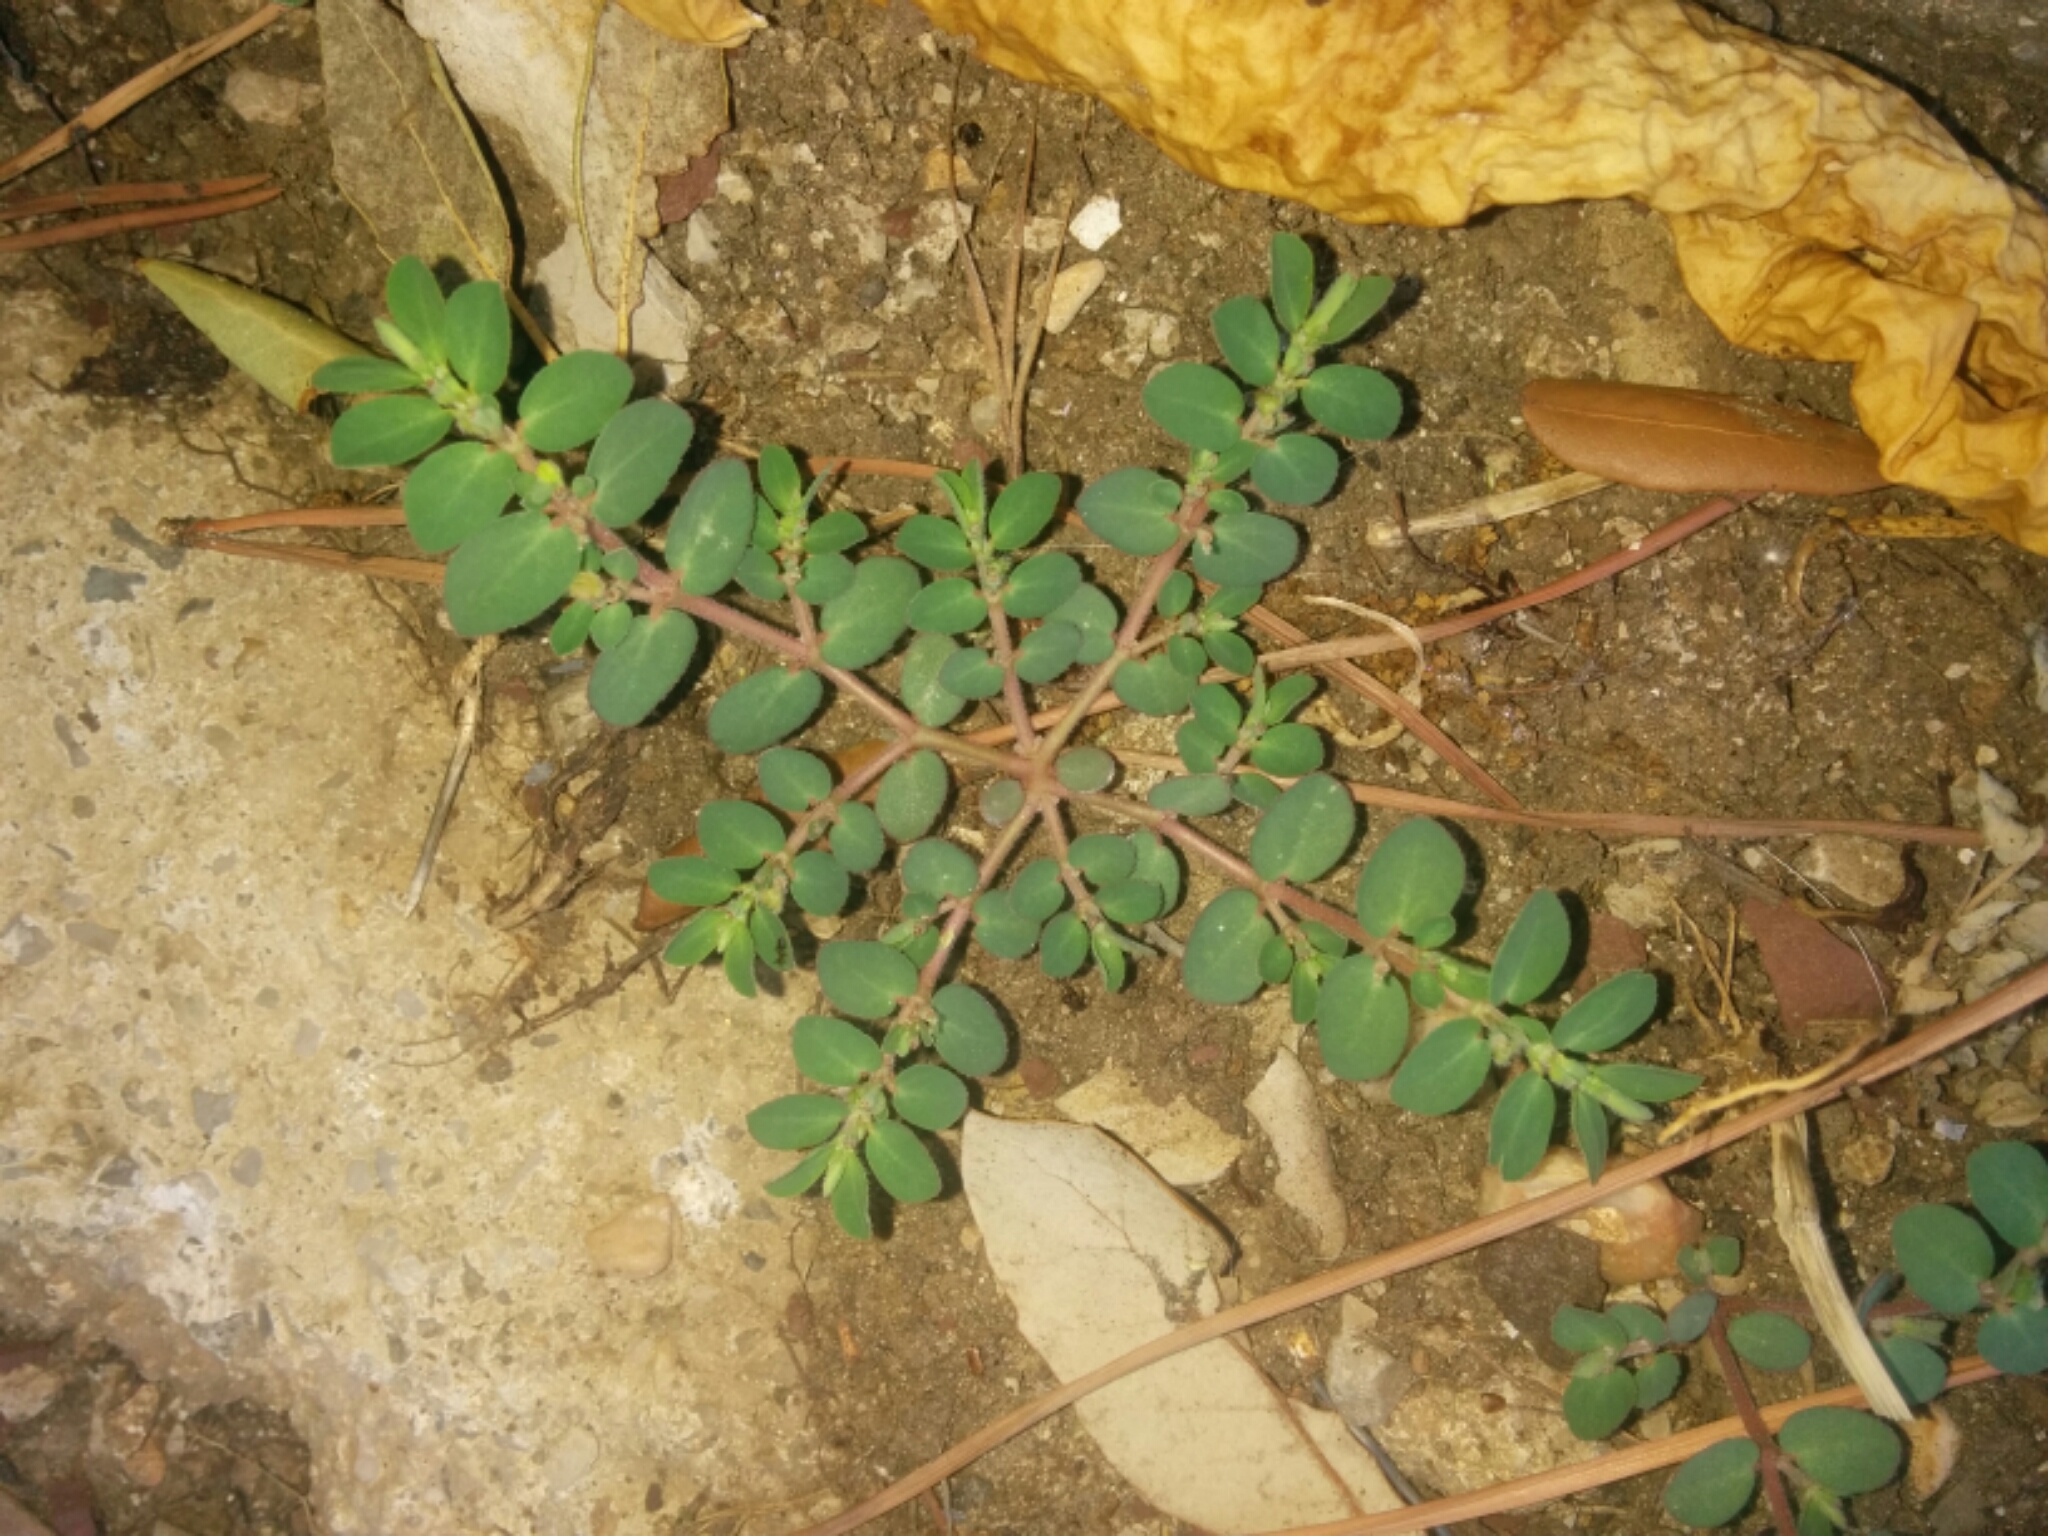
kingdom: Plantae
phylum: Tracheophyta
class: Magnoliopsida
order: Malpighiales
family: Euphorbiaceae
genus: Euphorbia
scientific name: Euphorbia prostrata
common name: Prostrate sandmat
